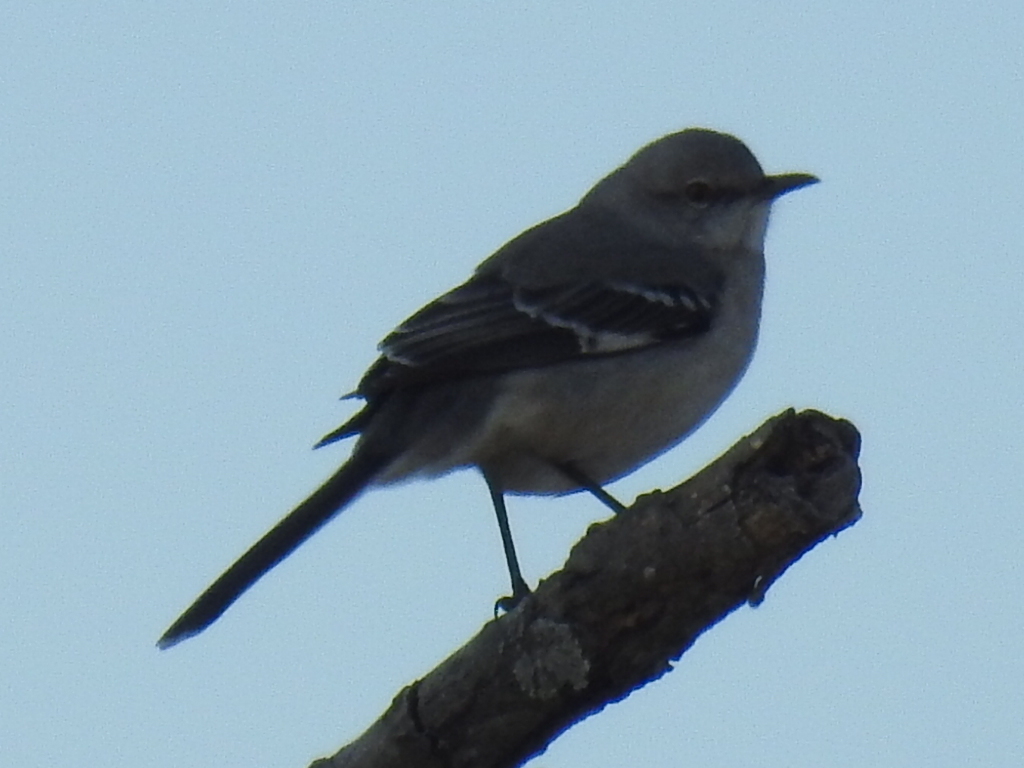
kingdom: Animalia
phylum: Chordata
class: Aves
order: Passeriformes
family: Mimidae
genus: Mimus
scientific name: Mimus polyglottos
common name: Northern mockingbird
